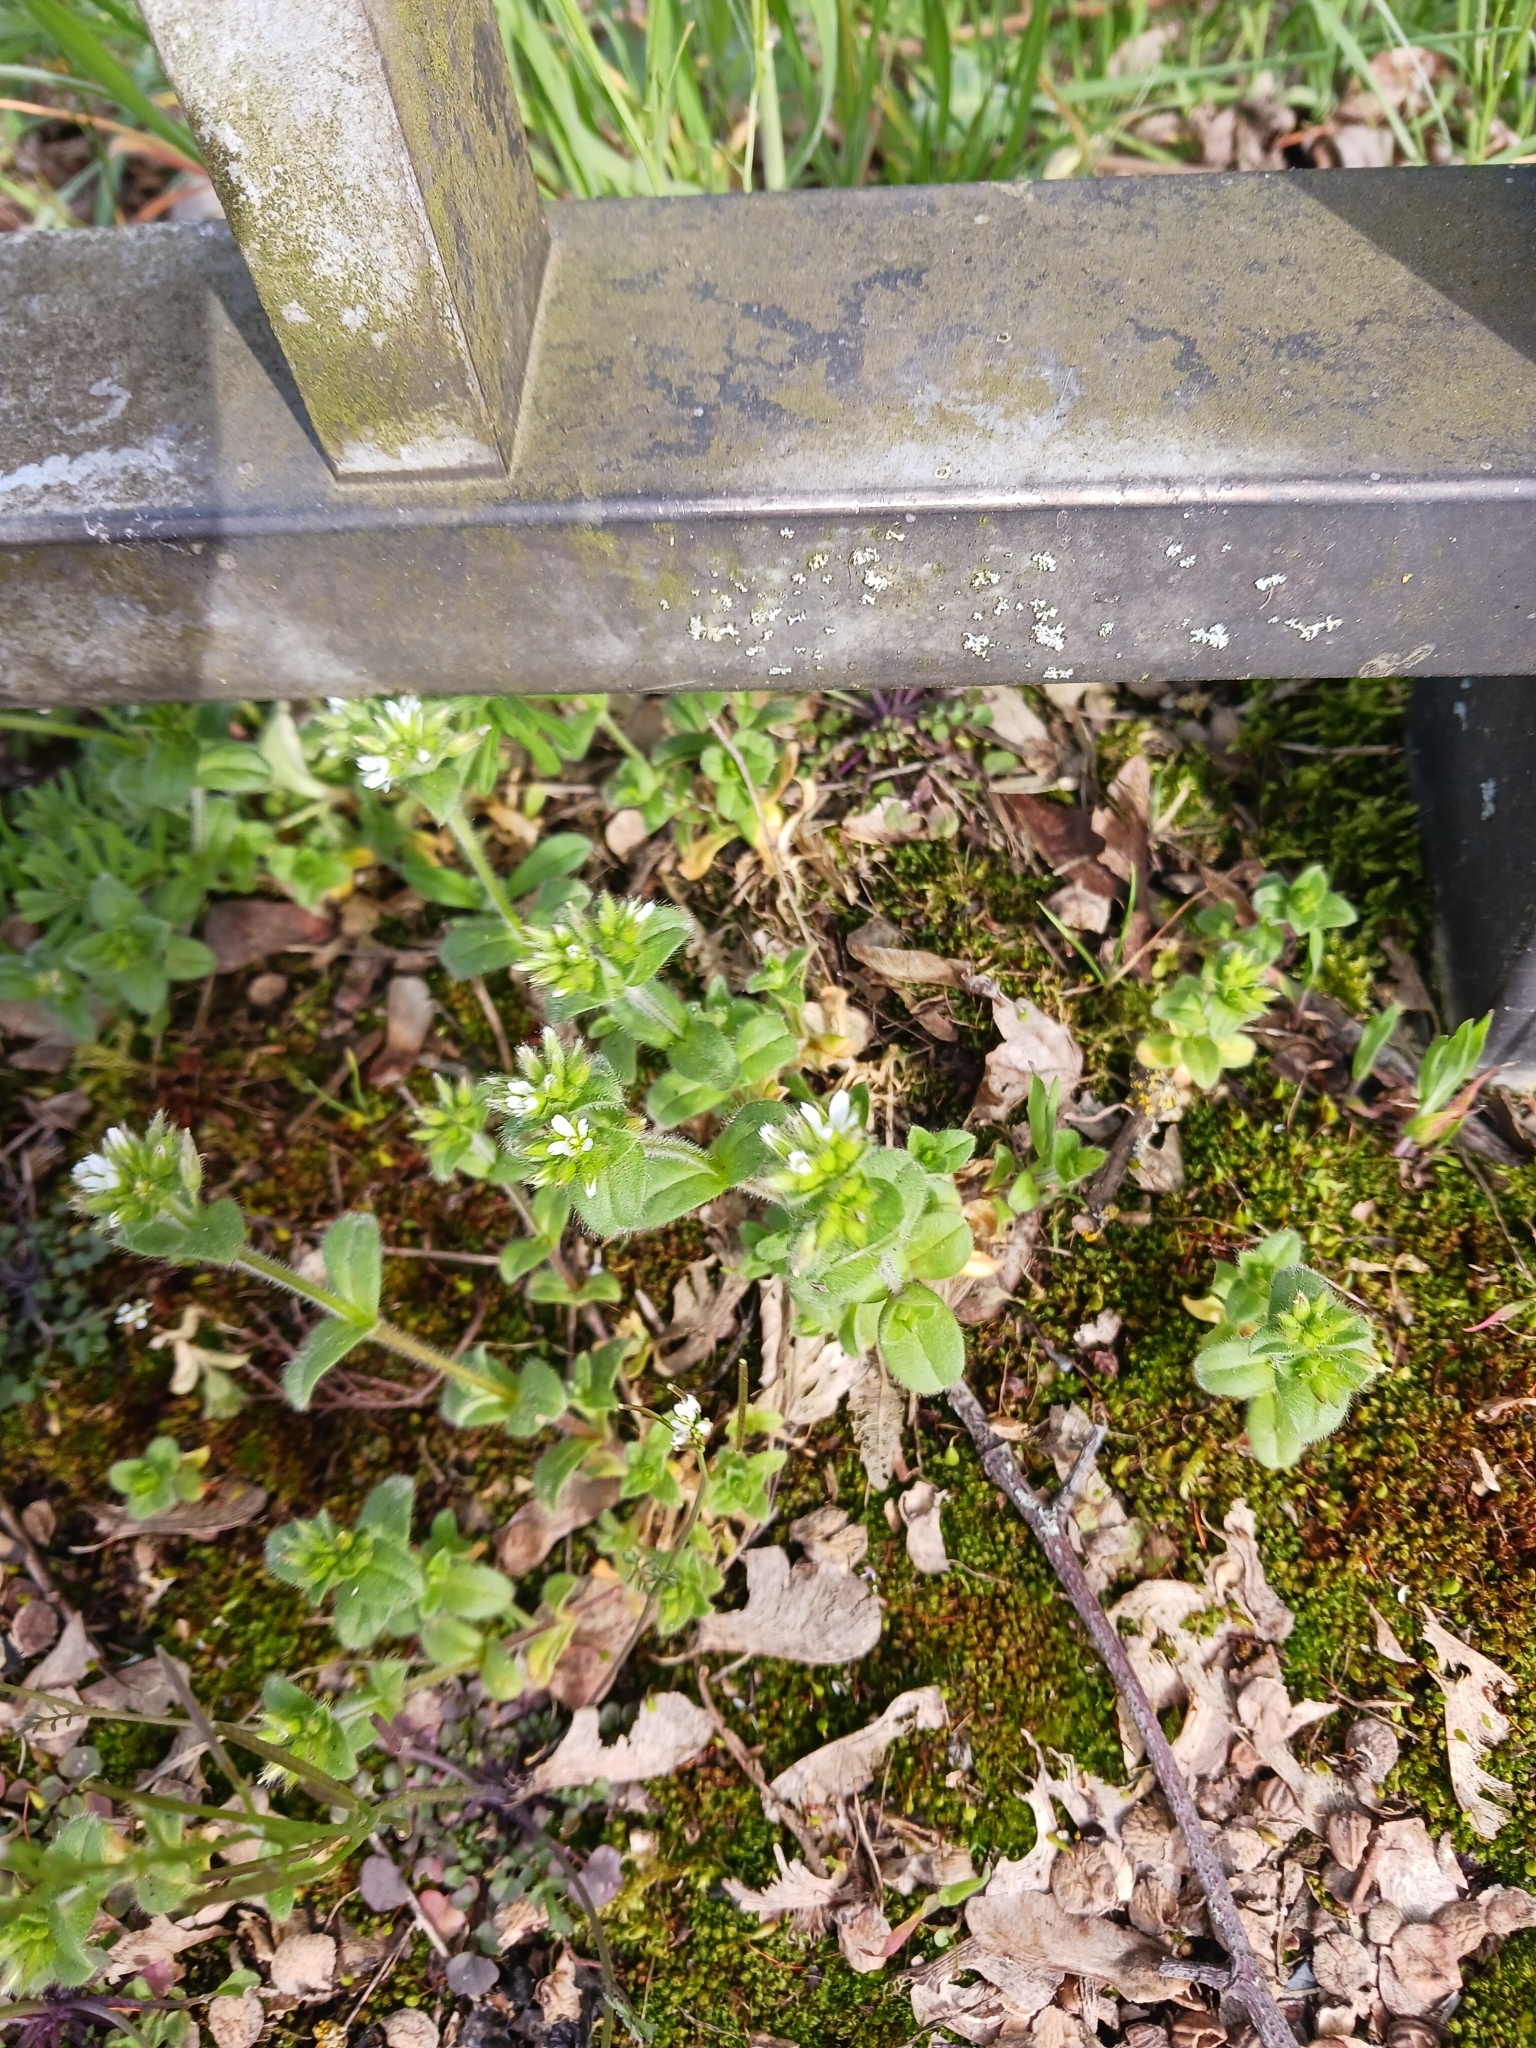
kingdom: Plantae
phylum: Tracheophyta
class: Magnoliopsida
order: Caryophyllales
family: Caryophyllaceae
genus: Cerastium
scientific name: Cerastium glomeratum
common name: Sticky chickweed
